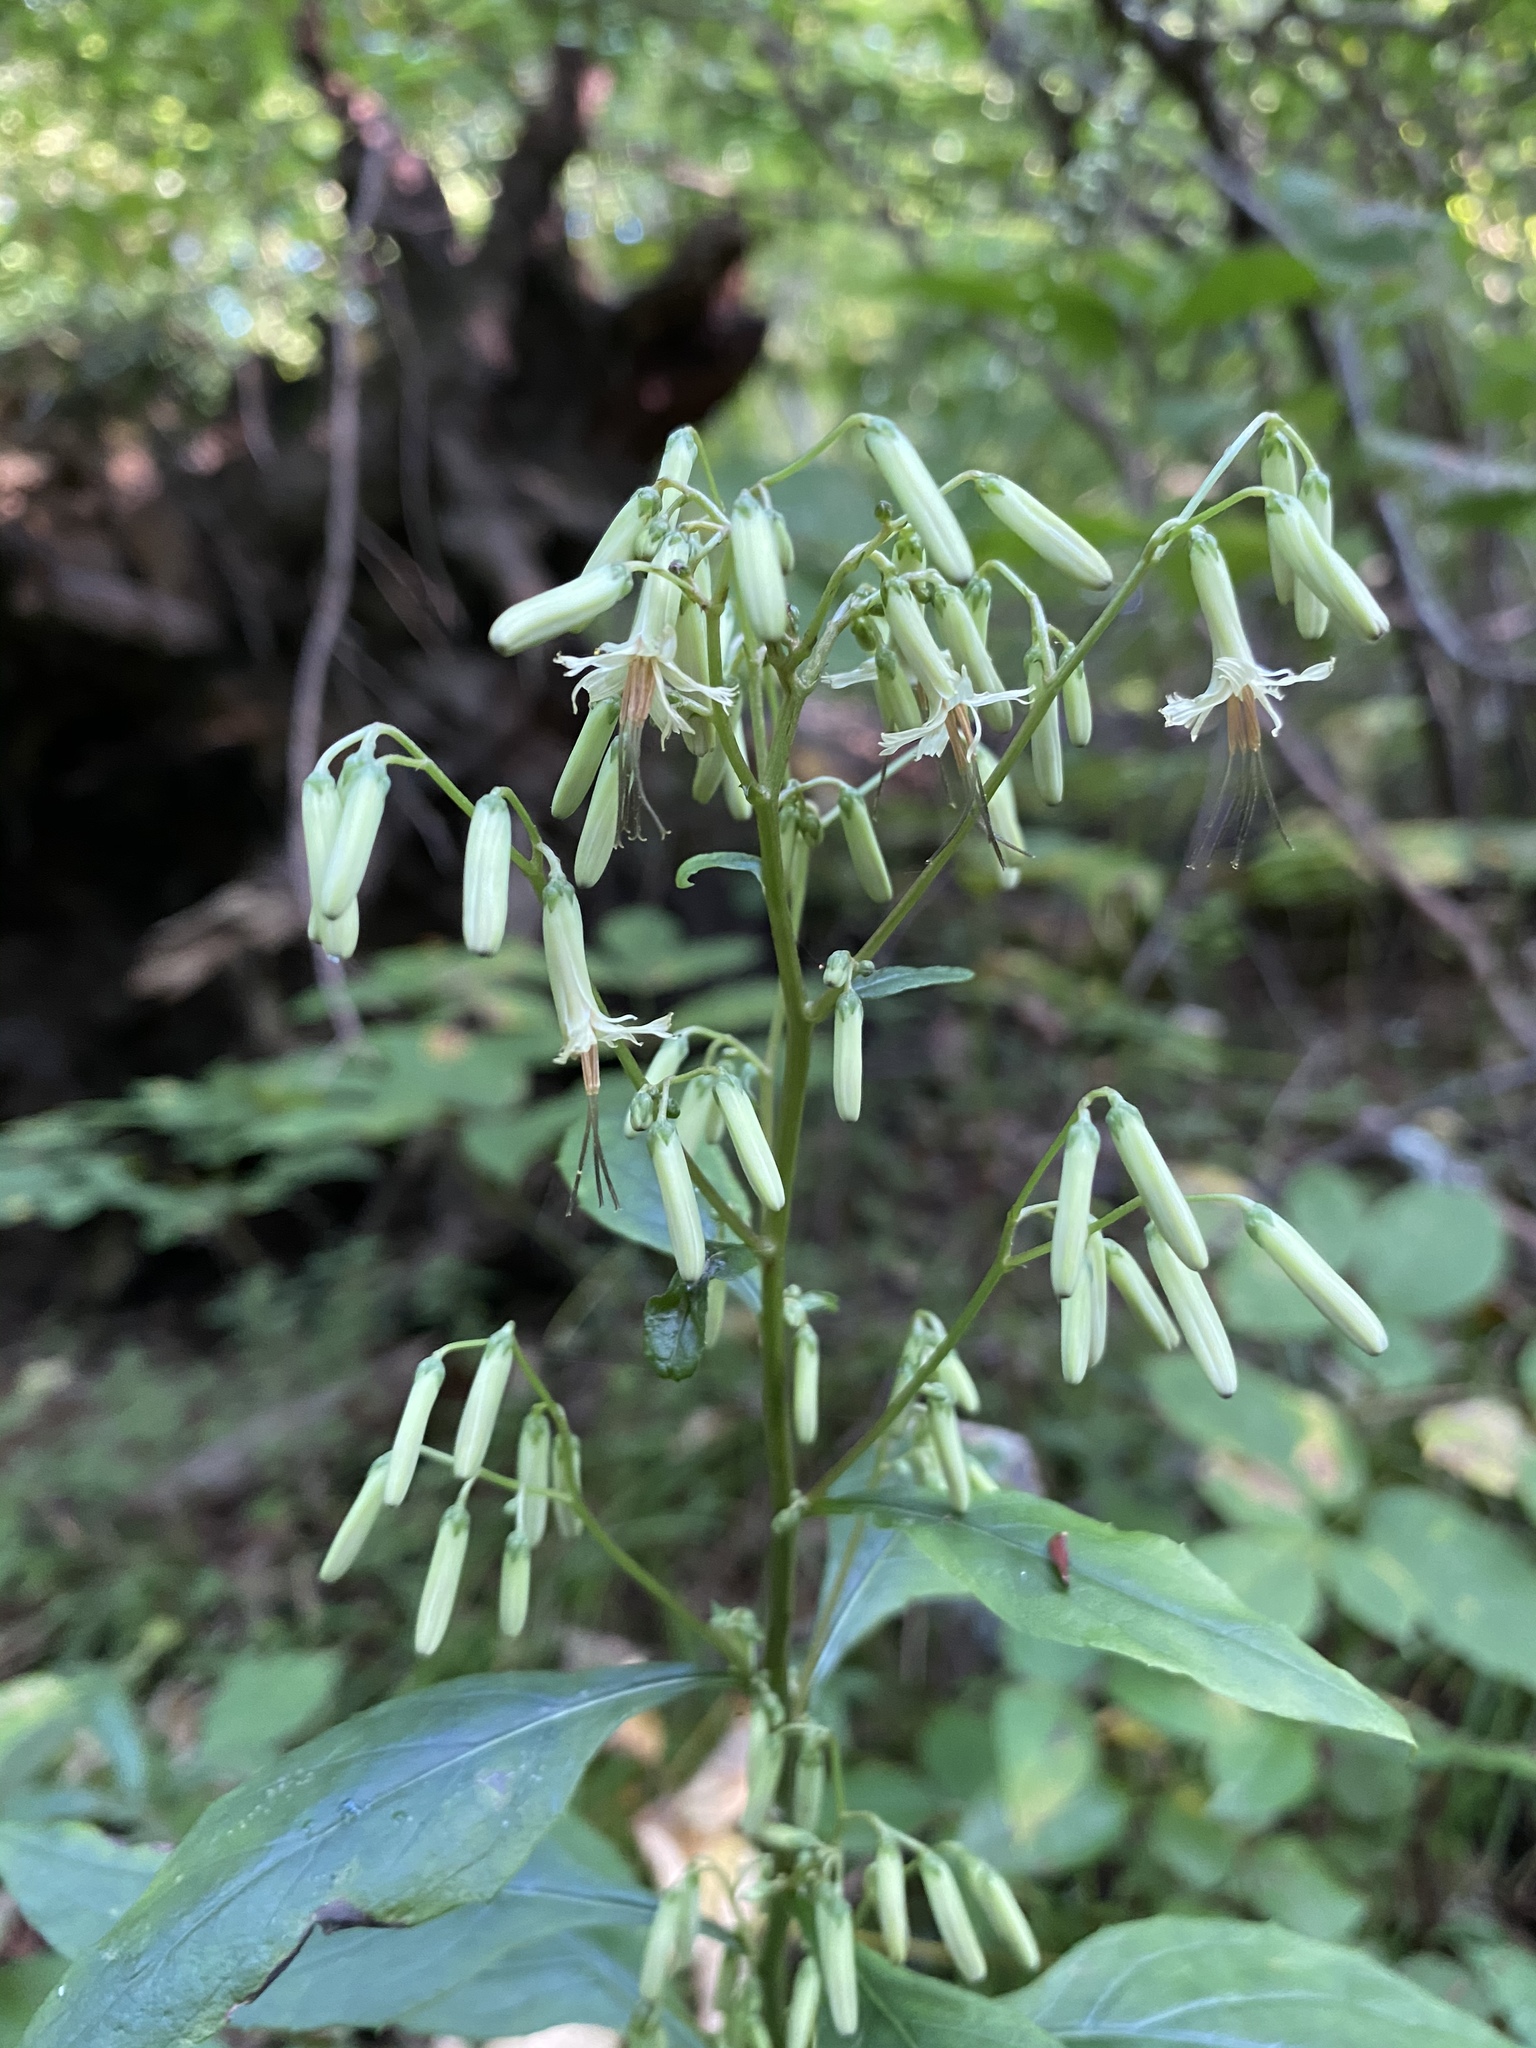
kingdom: Plantae
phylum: Tracheophyta
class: Magnoliopsida
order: Asterales
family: Asteraceae
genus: Nabalus
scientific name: Nabalus altissima
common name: Tall rattlesnakeroot
